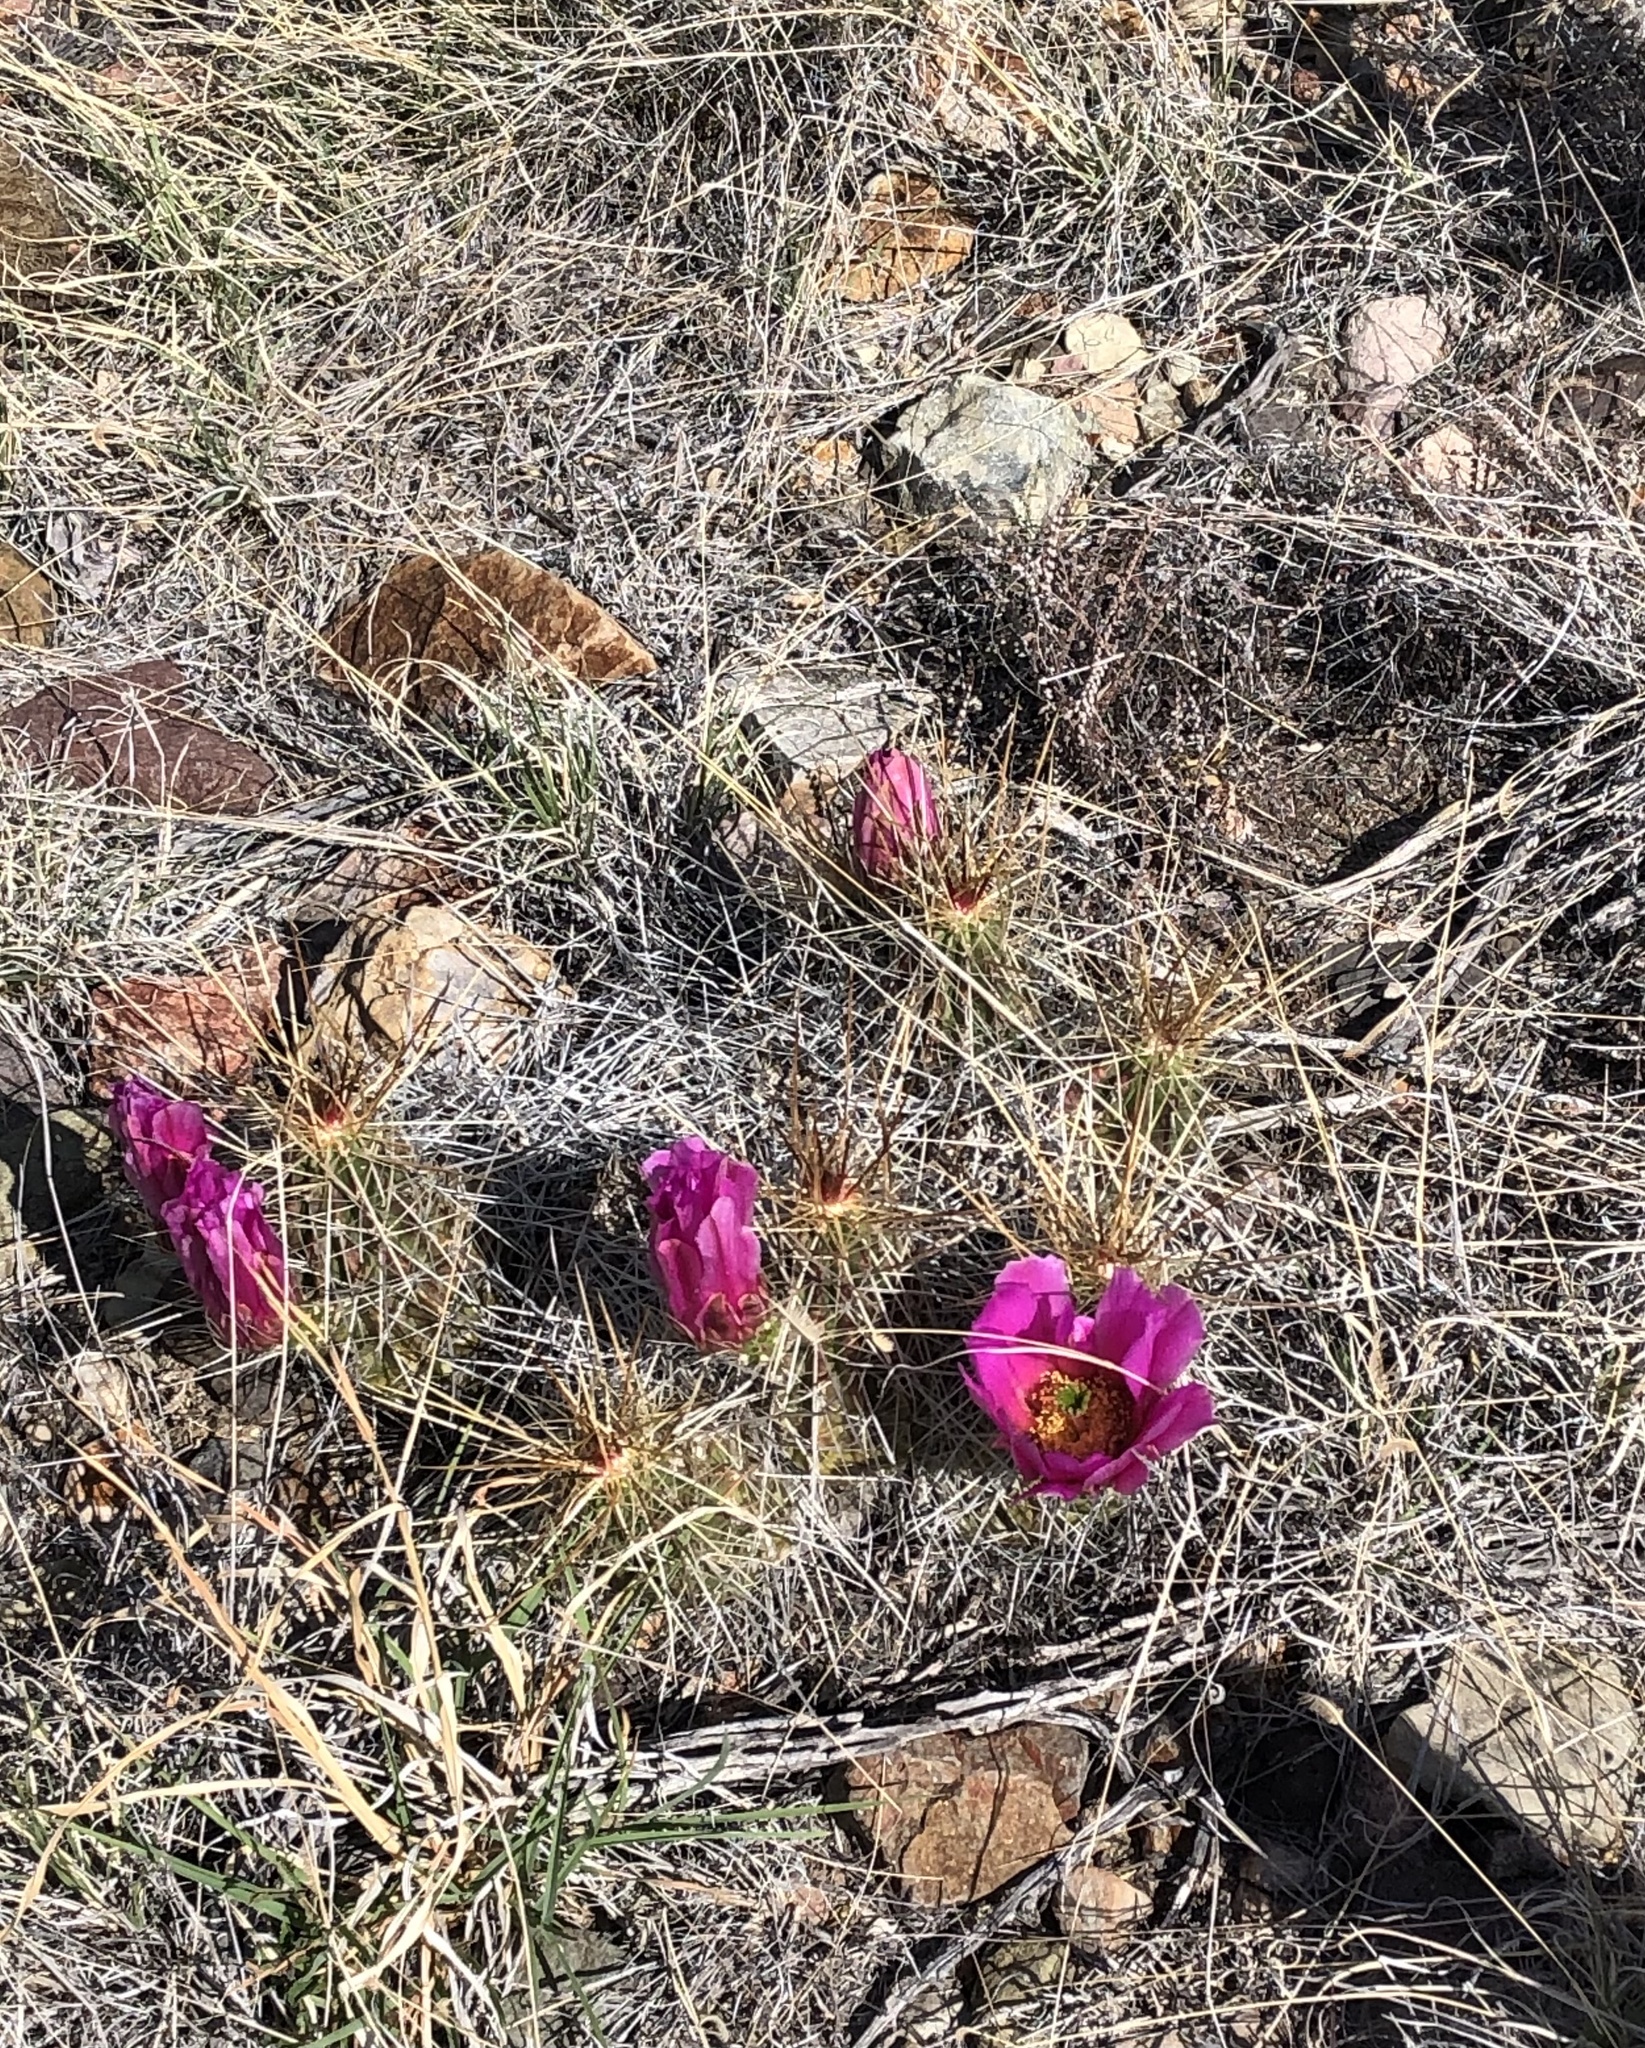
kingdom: Plantae
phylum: Tracheophyta
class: Magnoliopsida
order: Caryophyllales
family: Cactaceae
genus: Echinocereus
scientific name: Echinocereus stramineus
